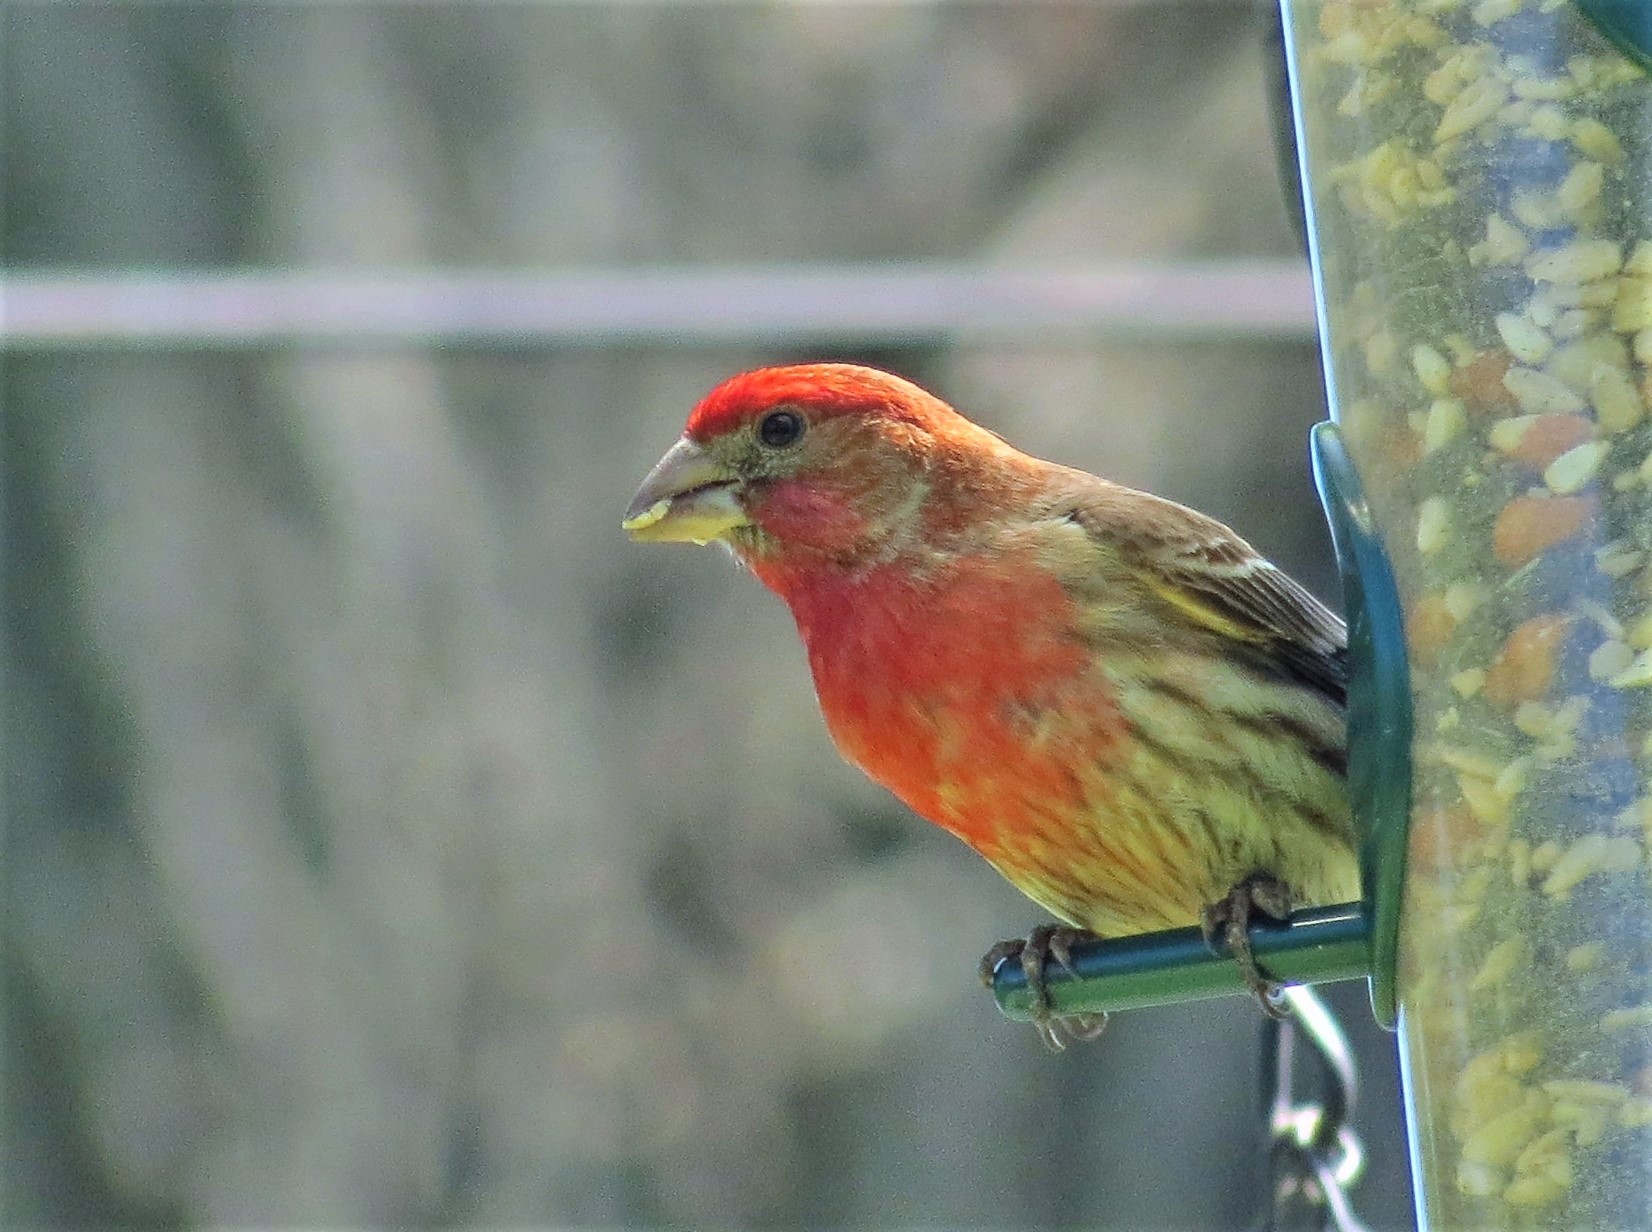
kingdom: Animalia
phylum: Chordata
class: Aves
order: Passeriformes
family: Fringillidae
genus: Haemorhous
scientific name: Haemorhous mexicanus
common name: House finch
